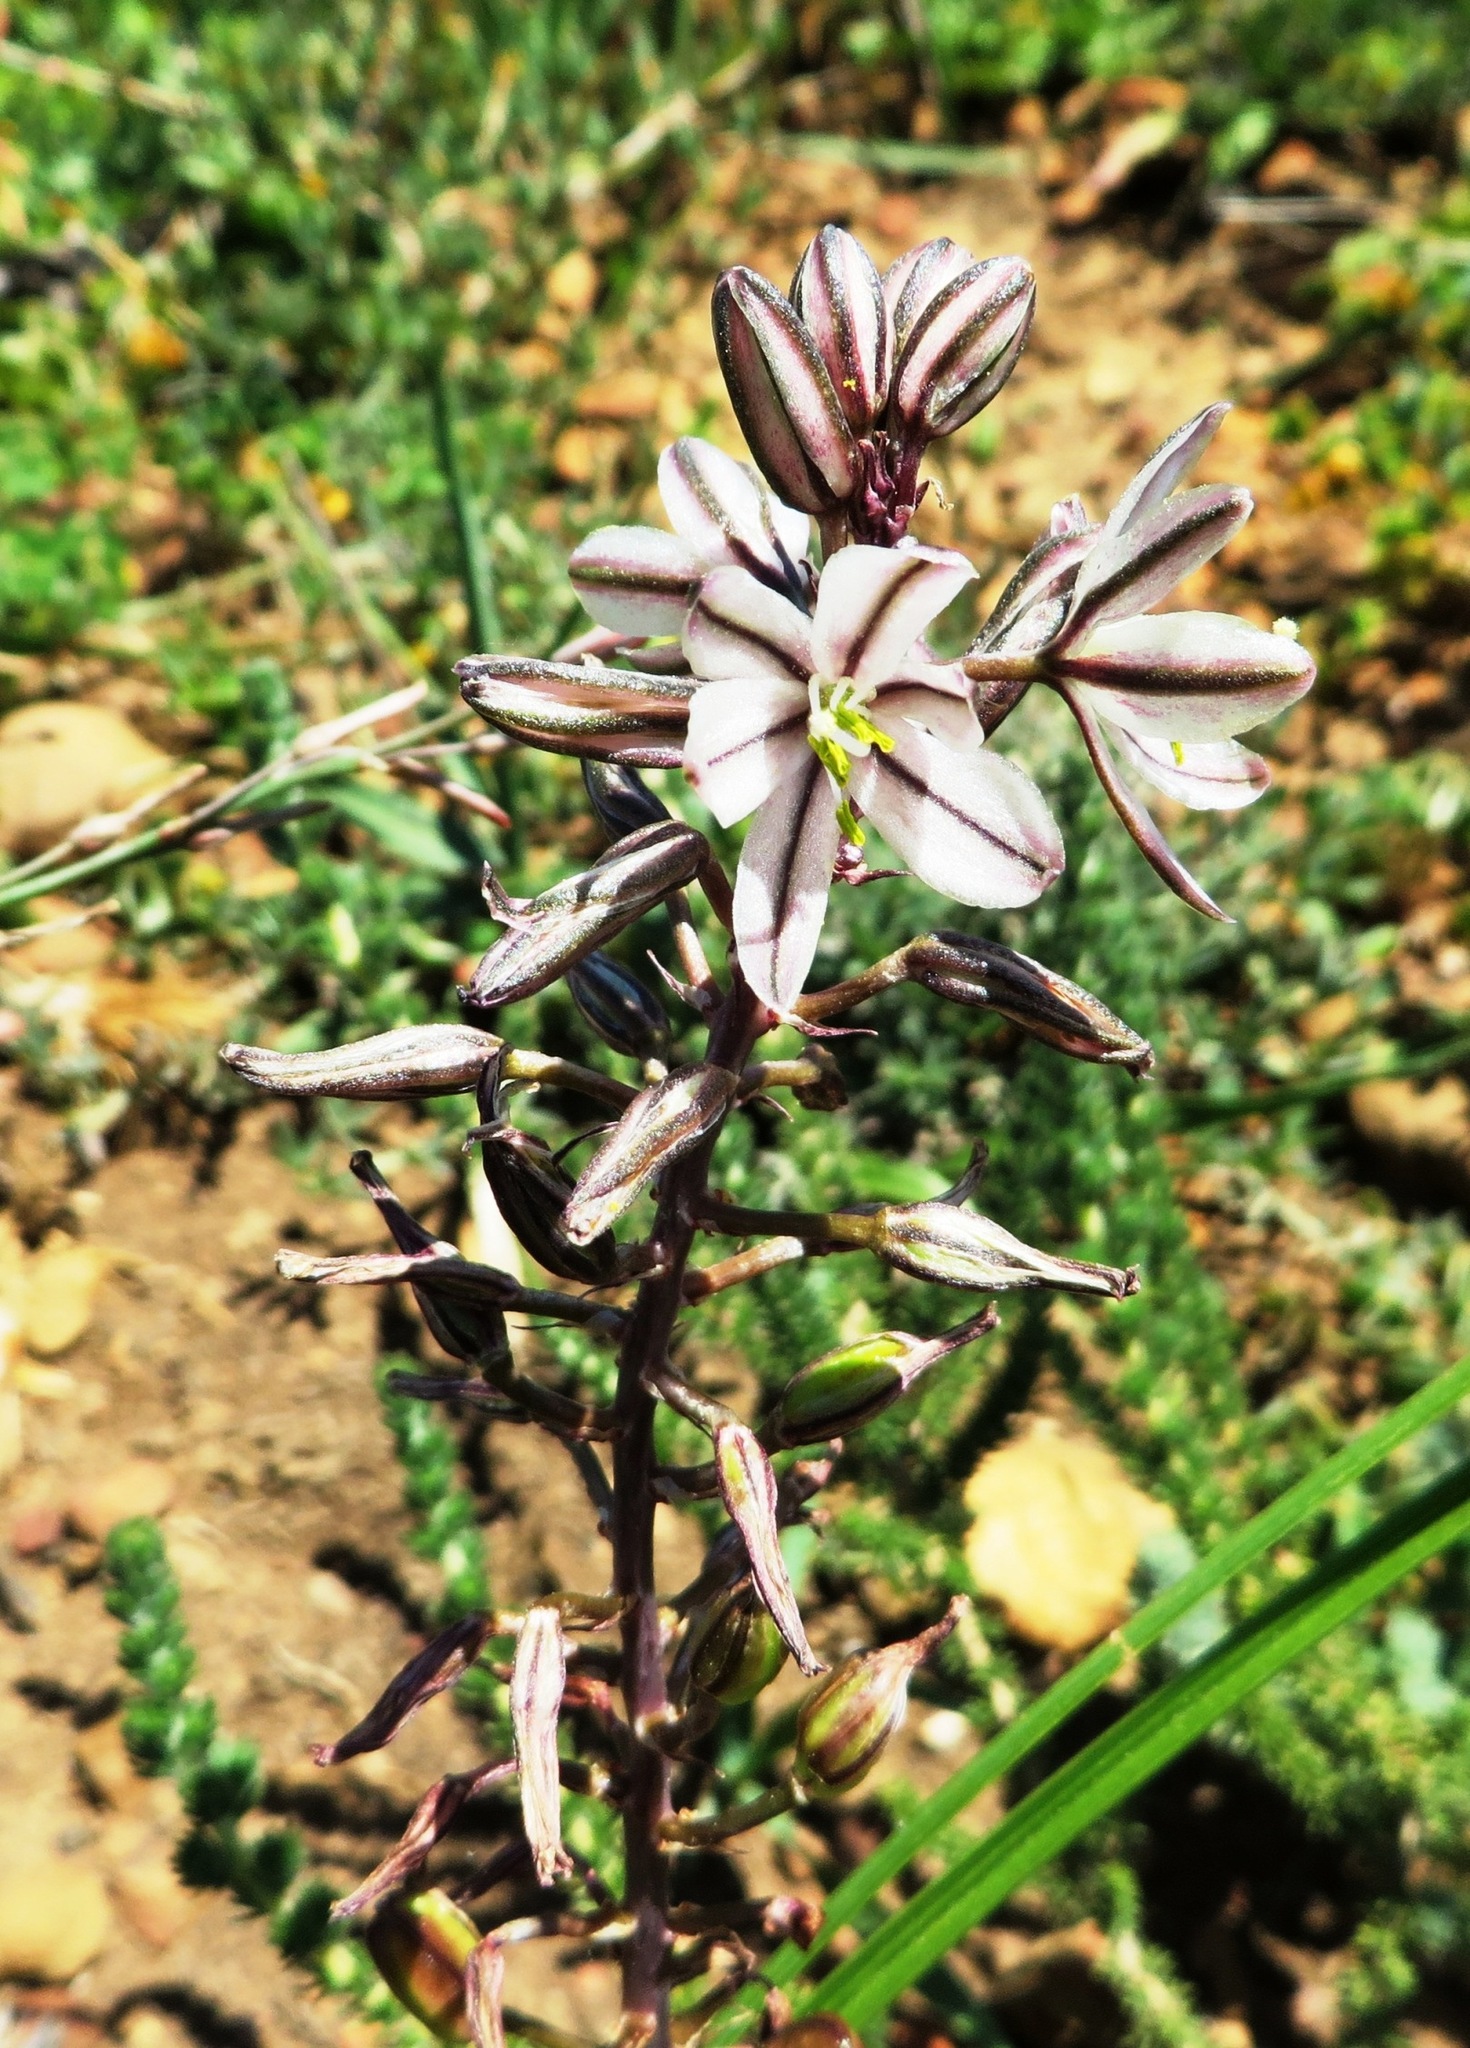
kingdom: Plantae
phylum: Tracheophyta
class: Liliopsida
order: Asparagales
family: Asparagaceae
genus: Drimia
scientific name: Drimia exuviata
